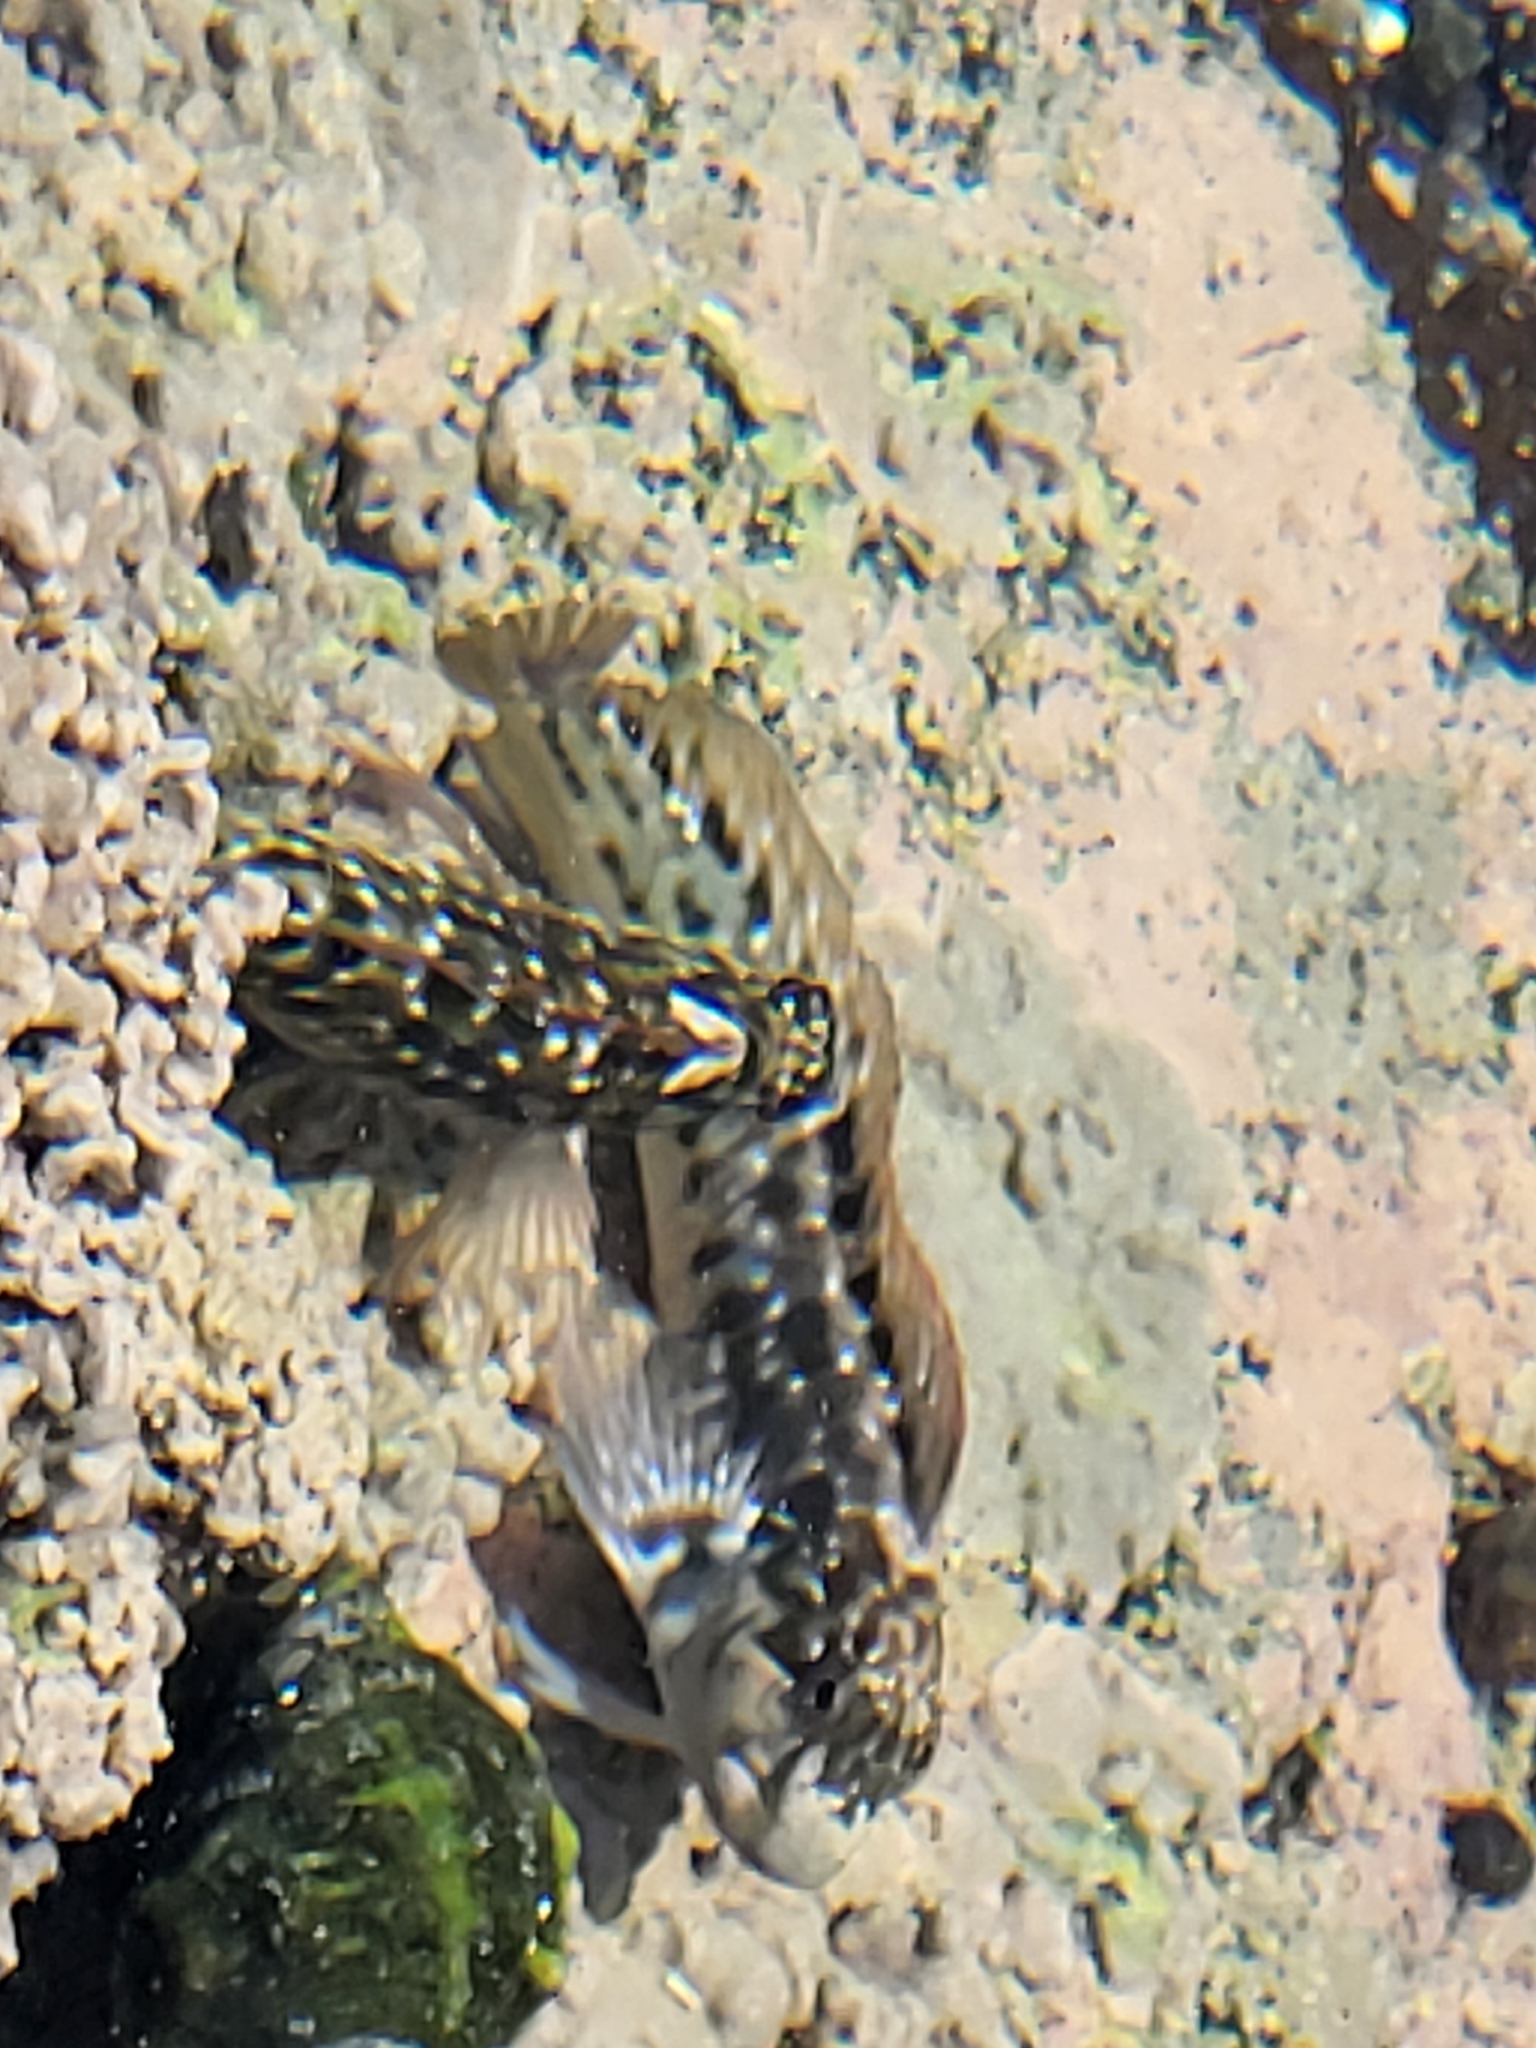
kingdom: Animalia
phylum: Chordata
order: Perciformes
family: Blenniidae
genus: Parablennius
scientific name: Parablennius parvicornis
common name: Rock-pool blenny
